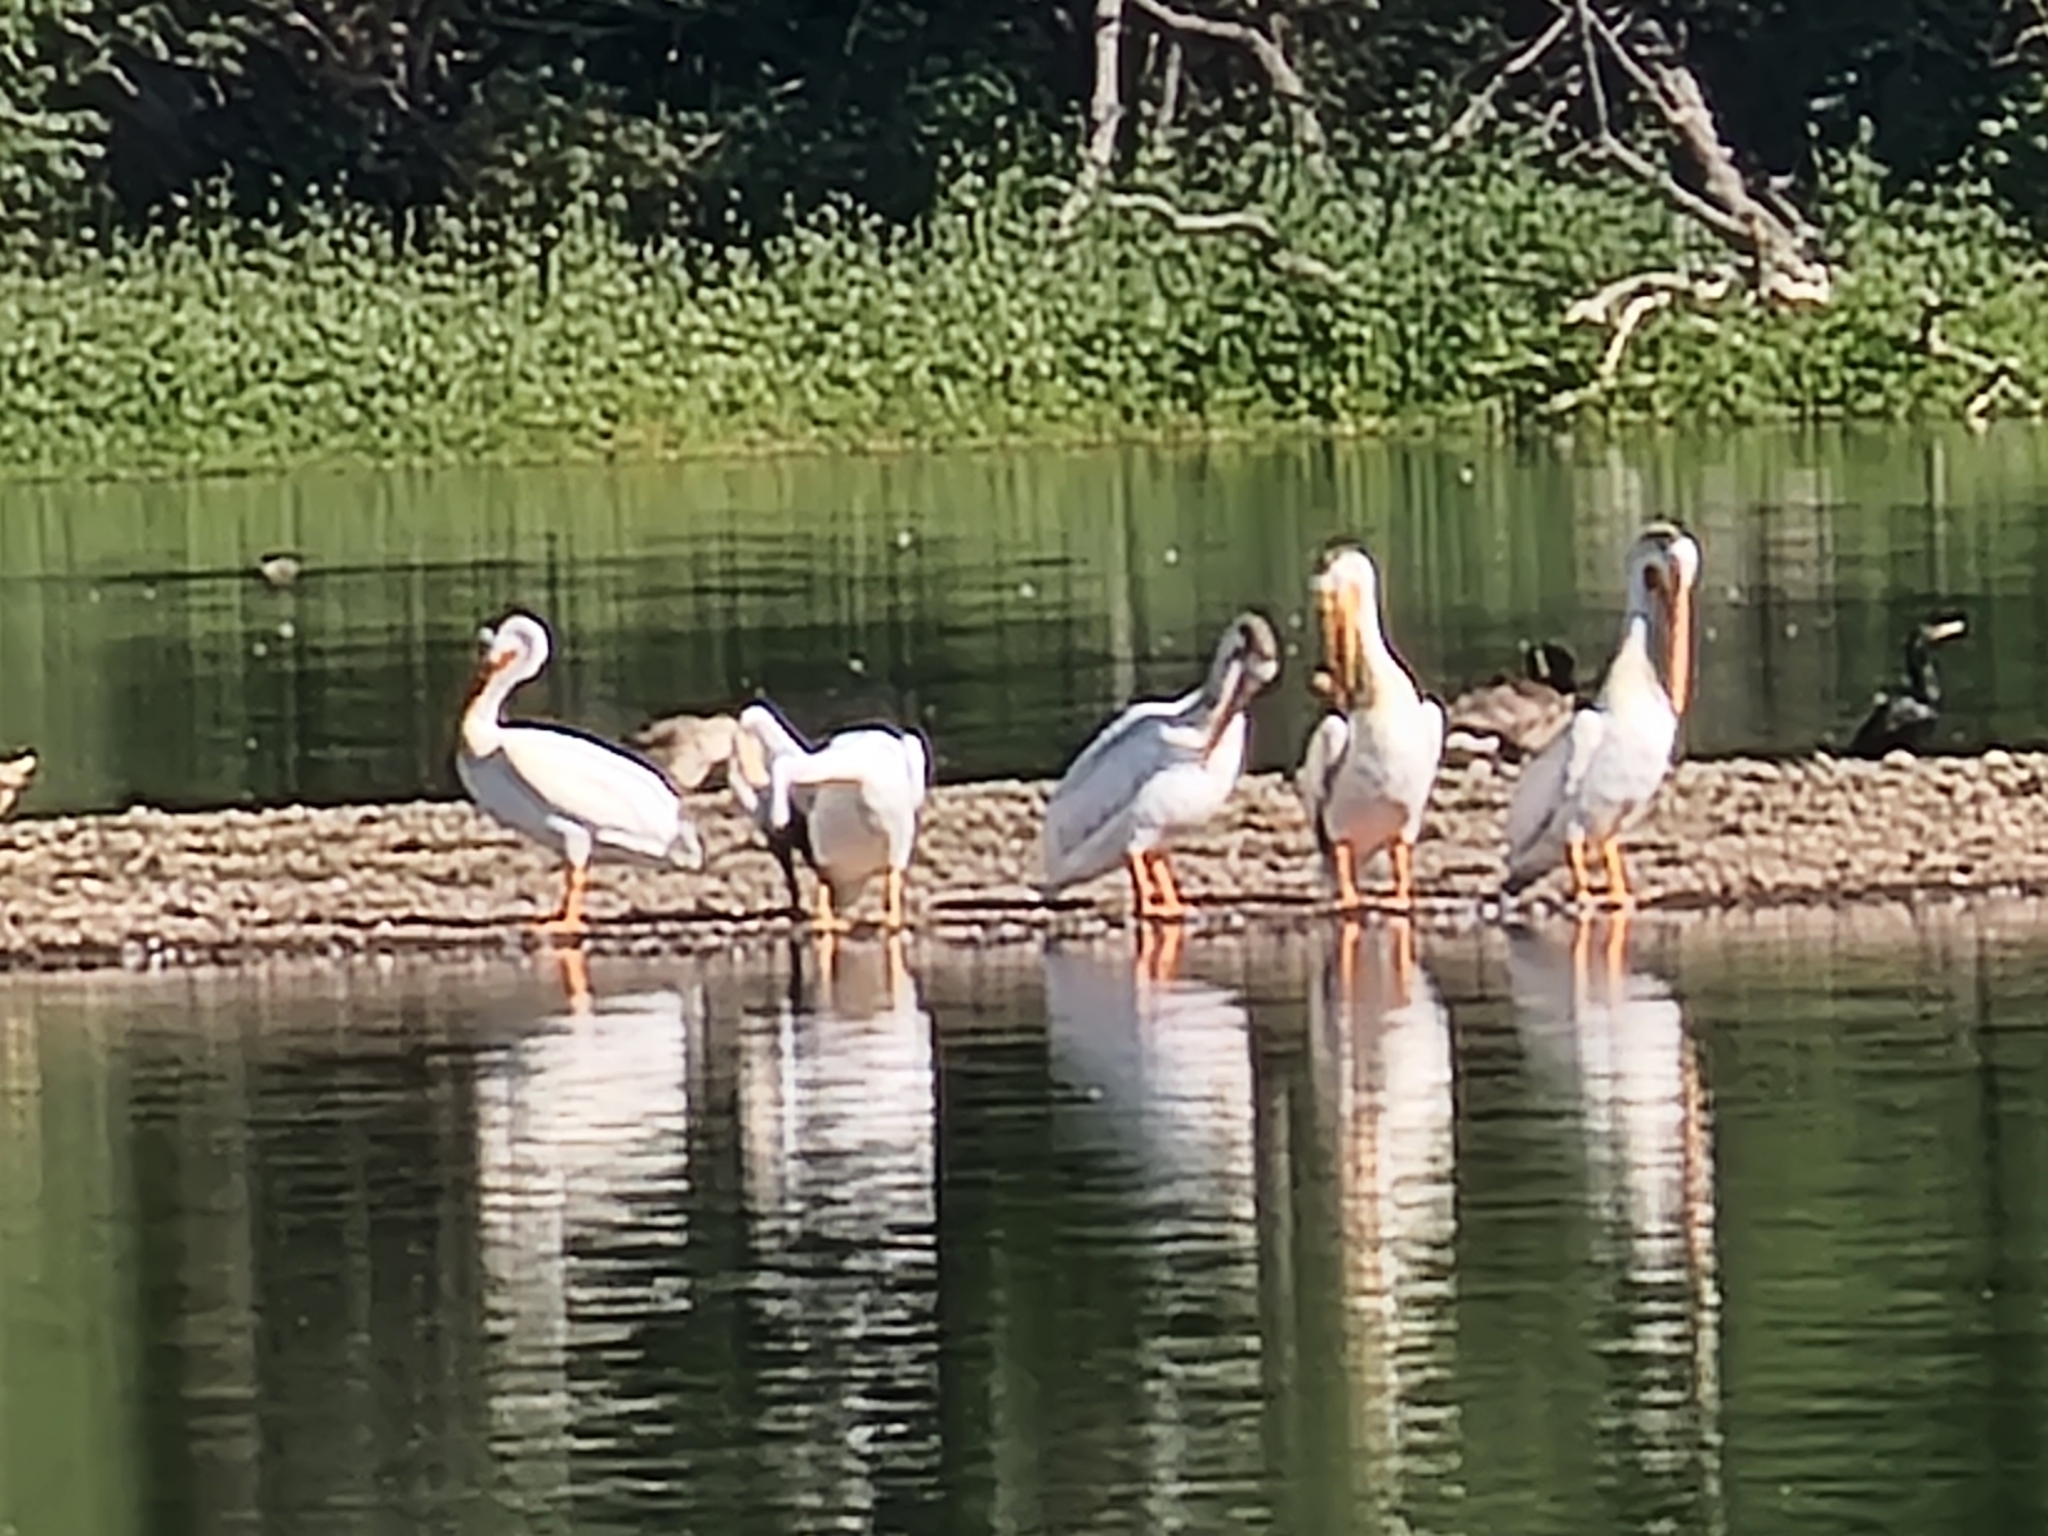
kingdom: Animalia
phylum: Chordata
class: Aves
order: Pelecaniformes
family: Pelecanidae
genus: Pelecanus
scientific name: Pelecanus erythrorhynchos
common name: American white pelican
